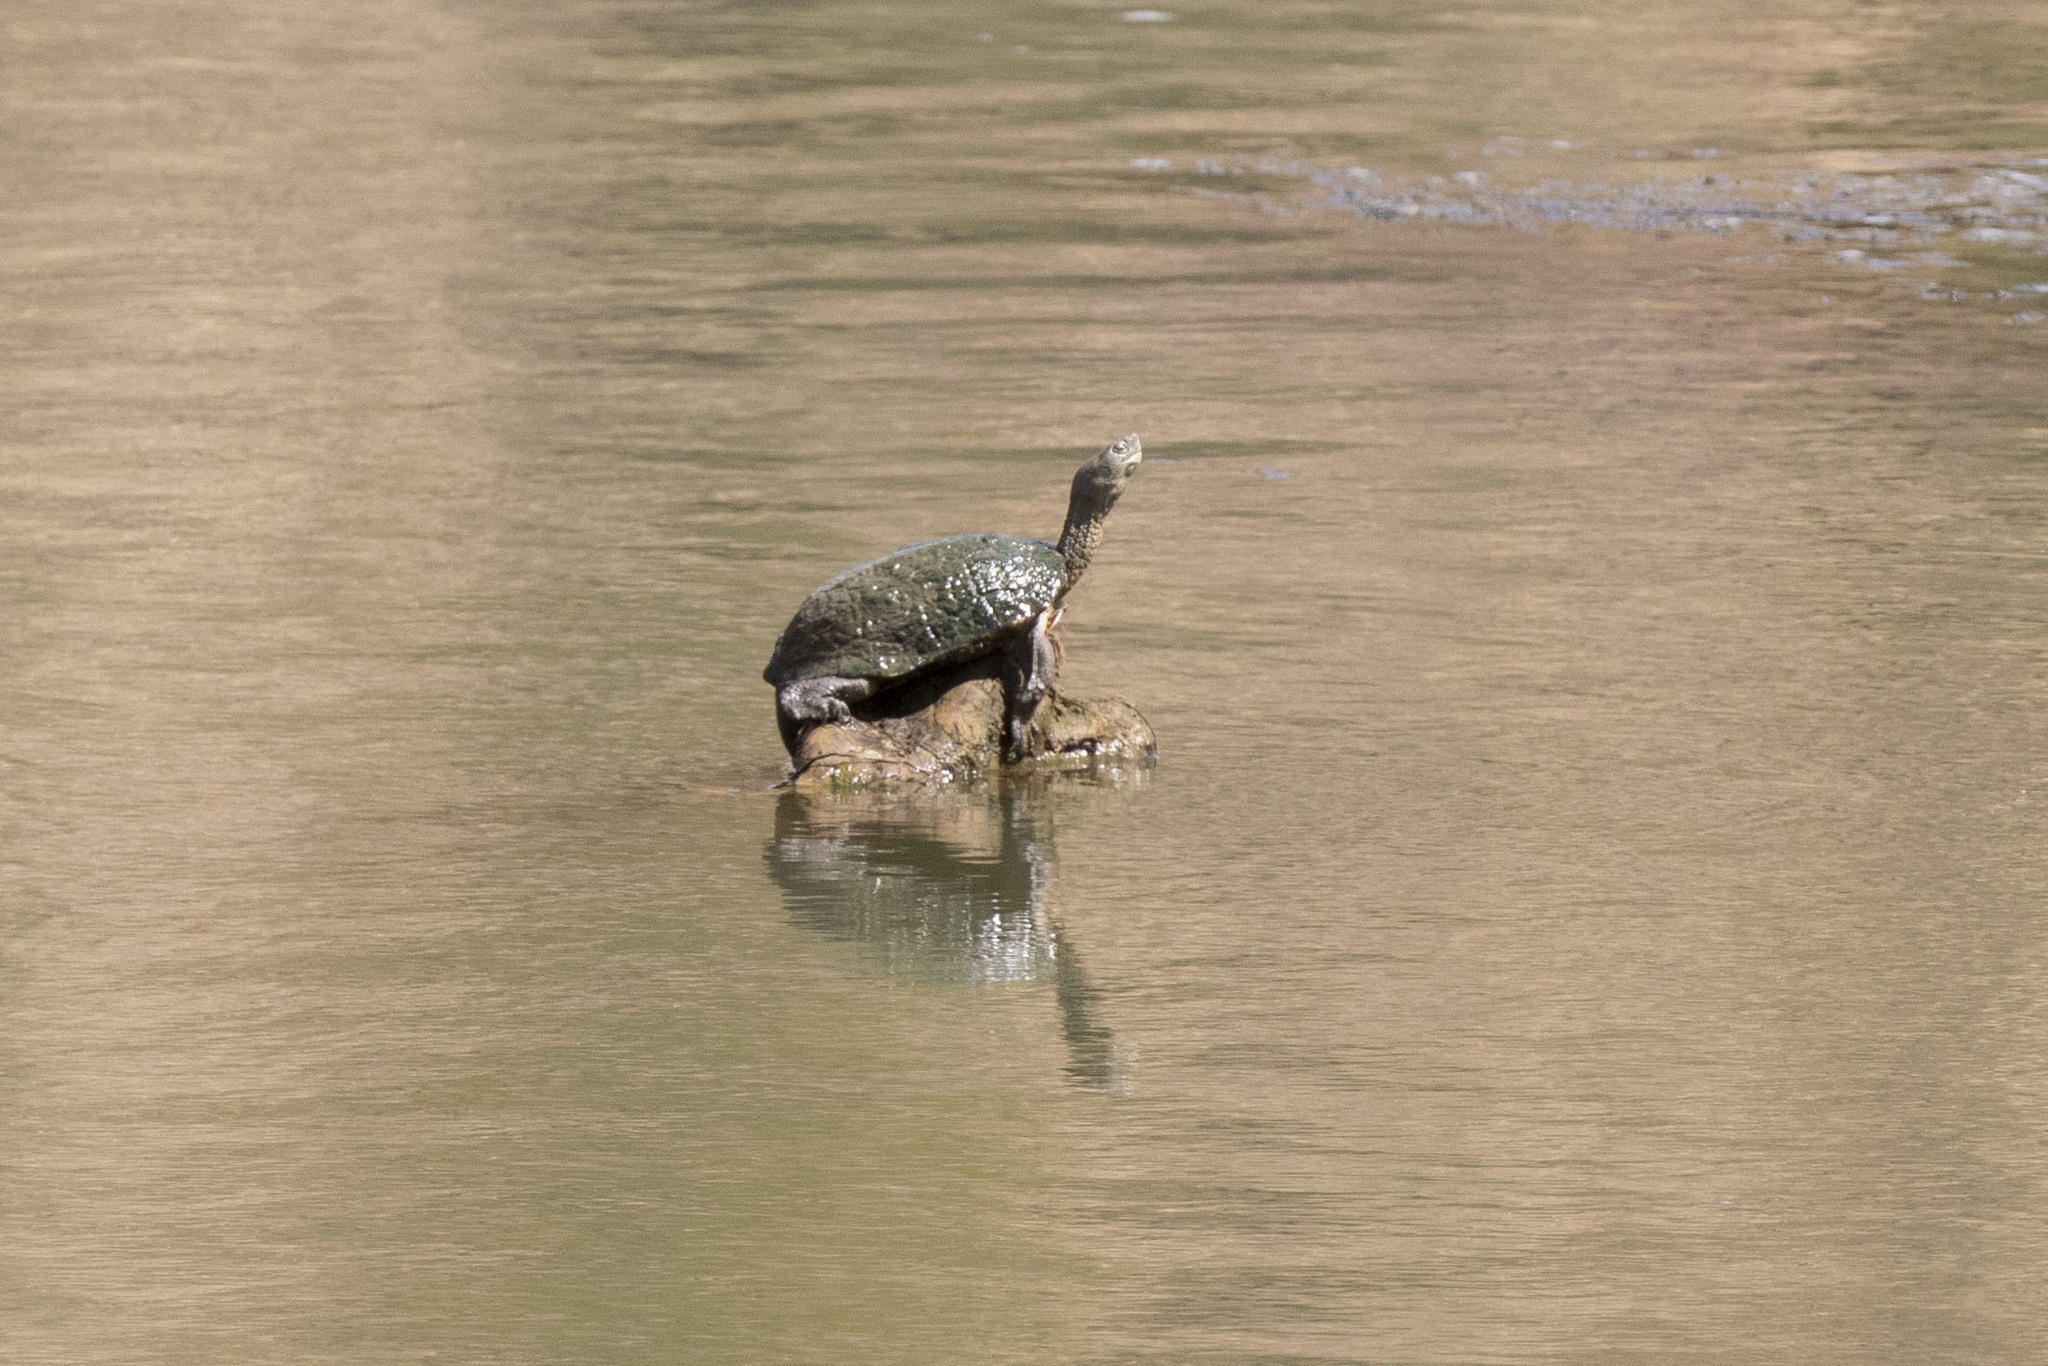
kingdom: Animalia
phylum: Chordata
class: Testudines
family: Geoemydidae
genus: Mauremys
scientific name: Mauremys leprosa
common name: Mediterranean pond turtle
